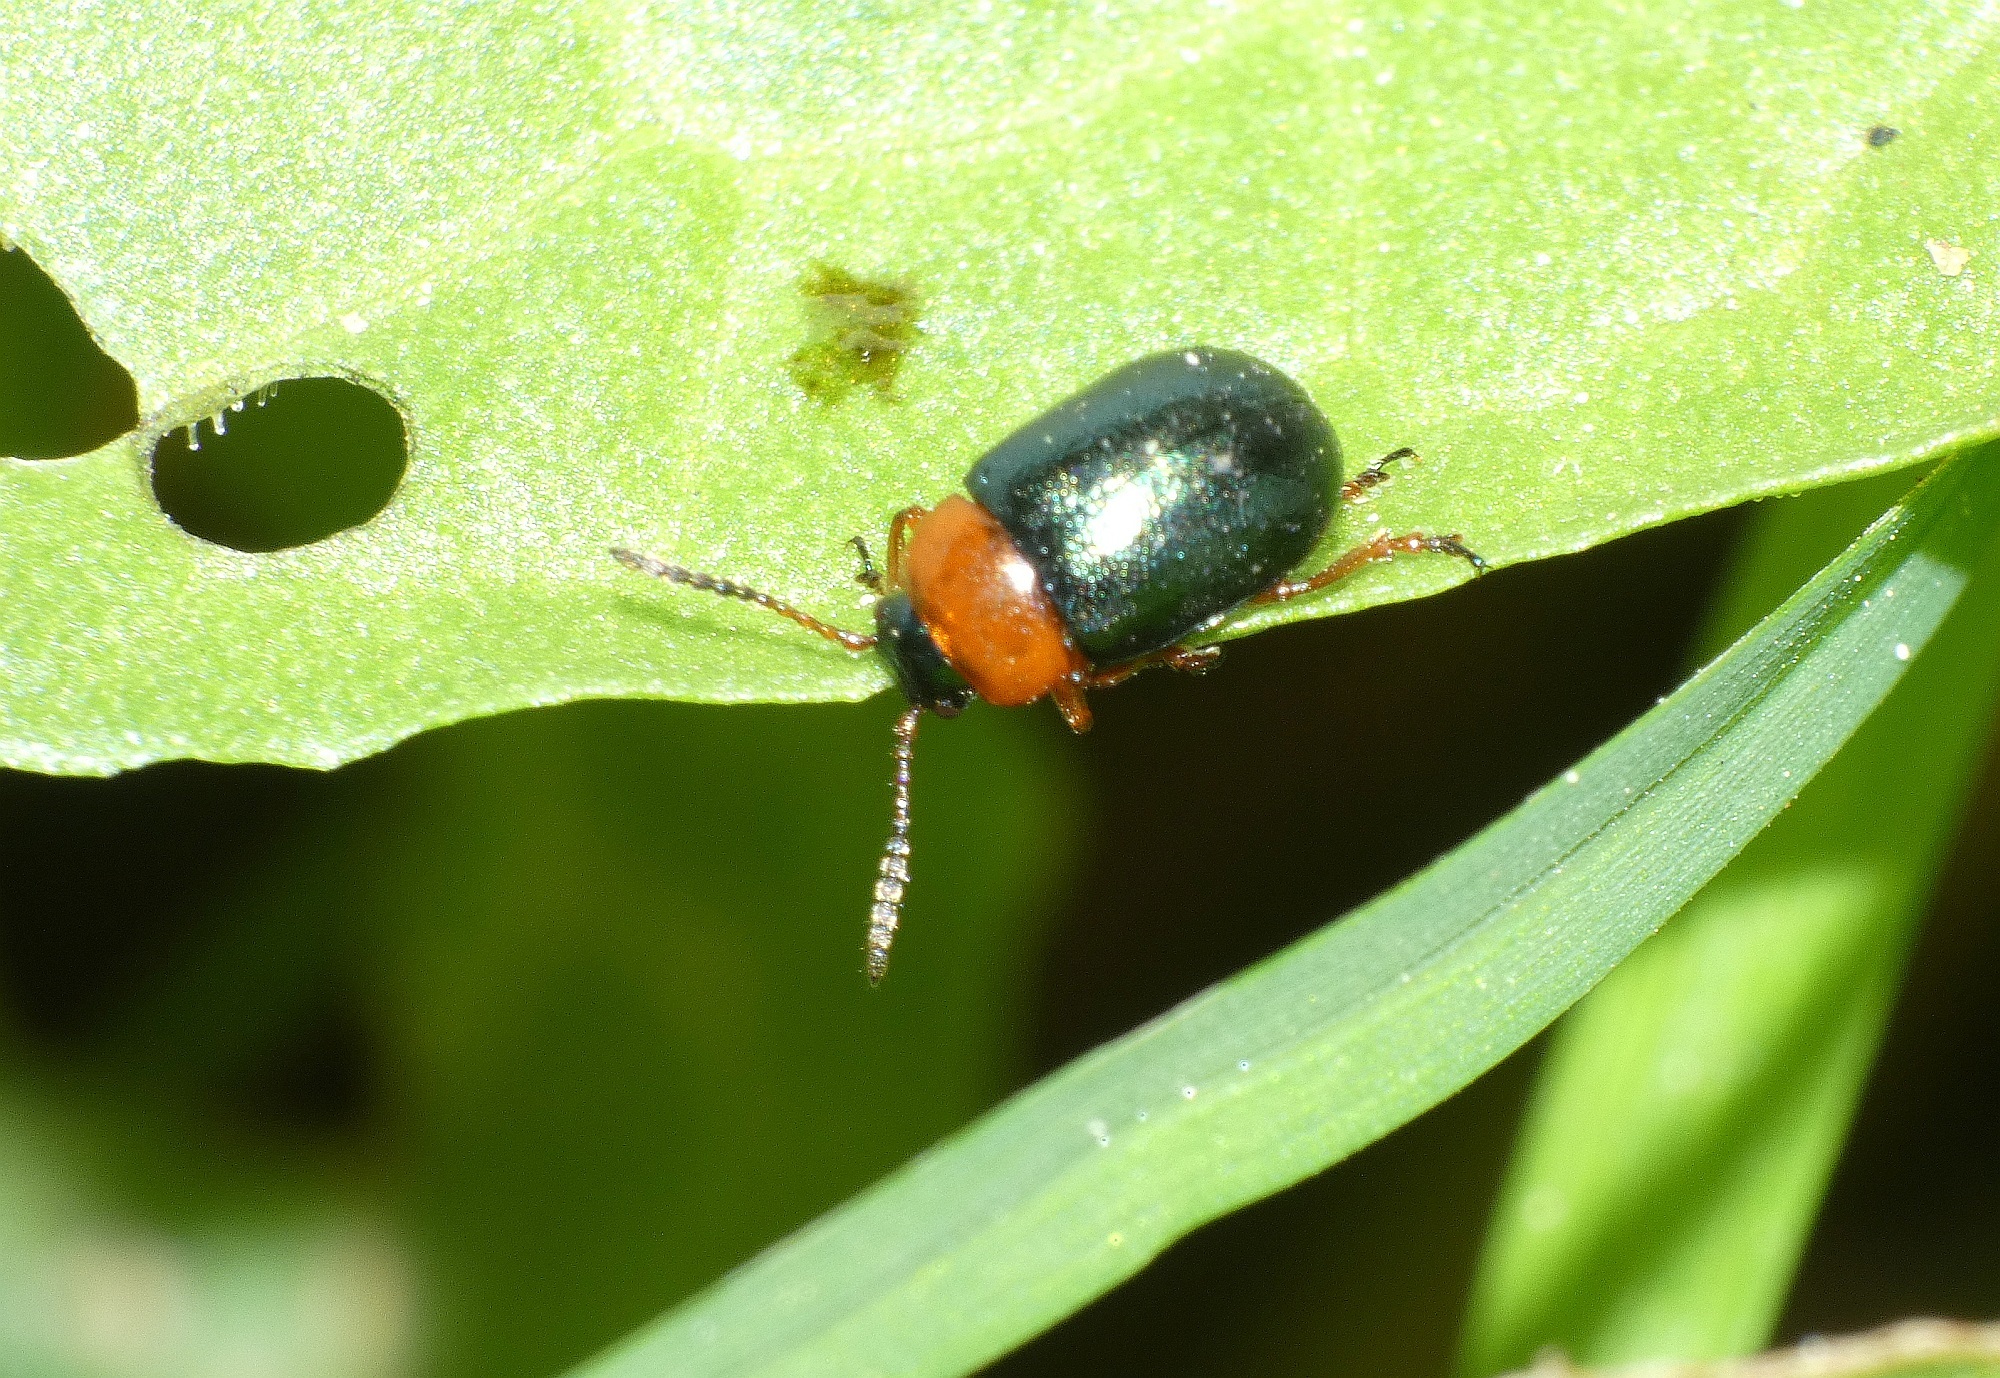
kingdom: Animalia
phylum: Arthropoda
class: Insecta
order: Coleoptera
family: Chrysomelidae
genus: Gastrophysa
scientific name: Gastrophysa polygoni
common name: Knotweed leaf beetle
